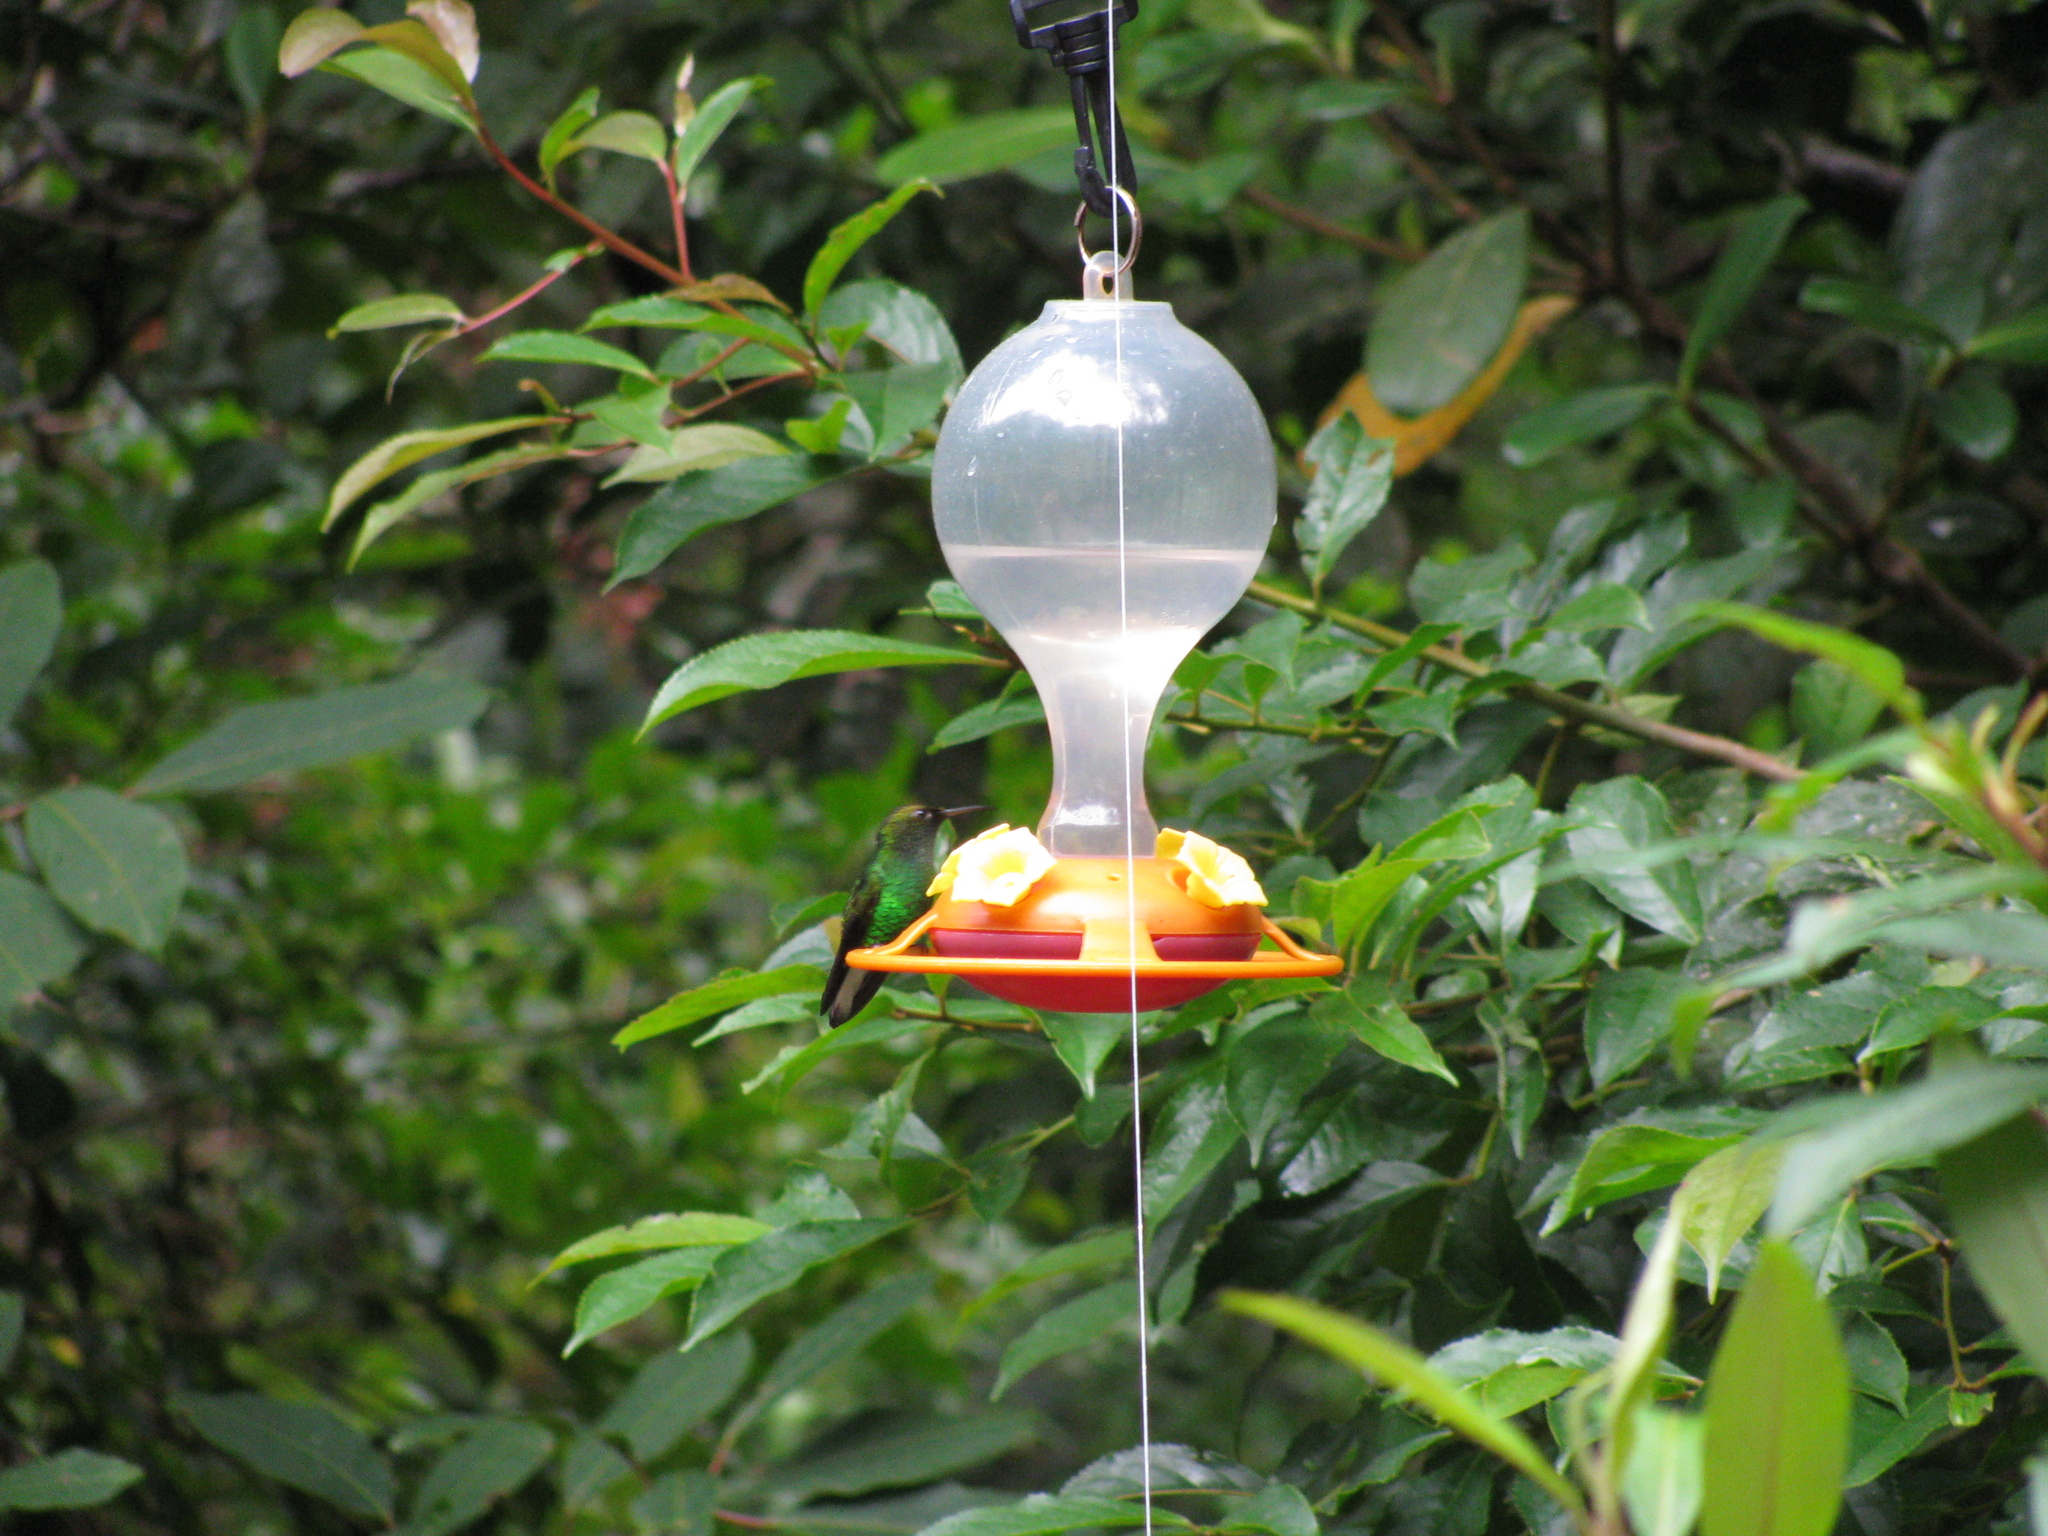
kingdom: Animalia
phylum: Chordata
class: Aves
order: Apodiformes
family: Trochilidae
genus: Microchera
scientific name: Microchera cupreiceps
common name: Coppery-headed emerald
